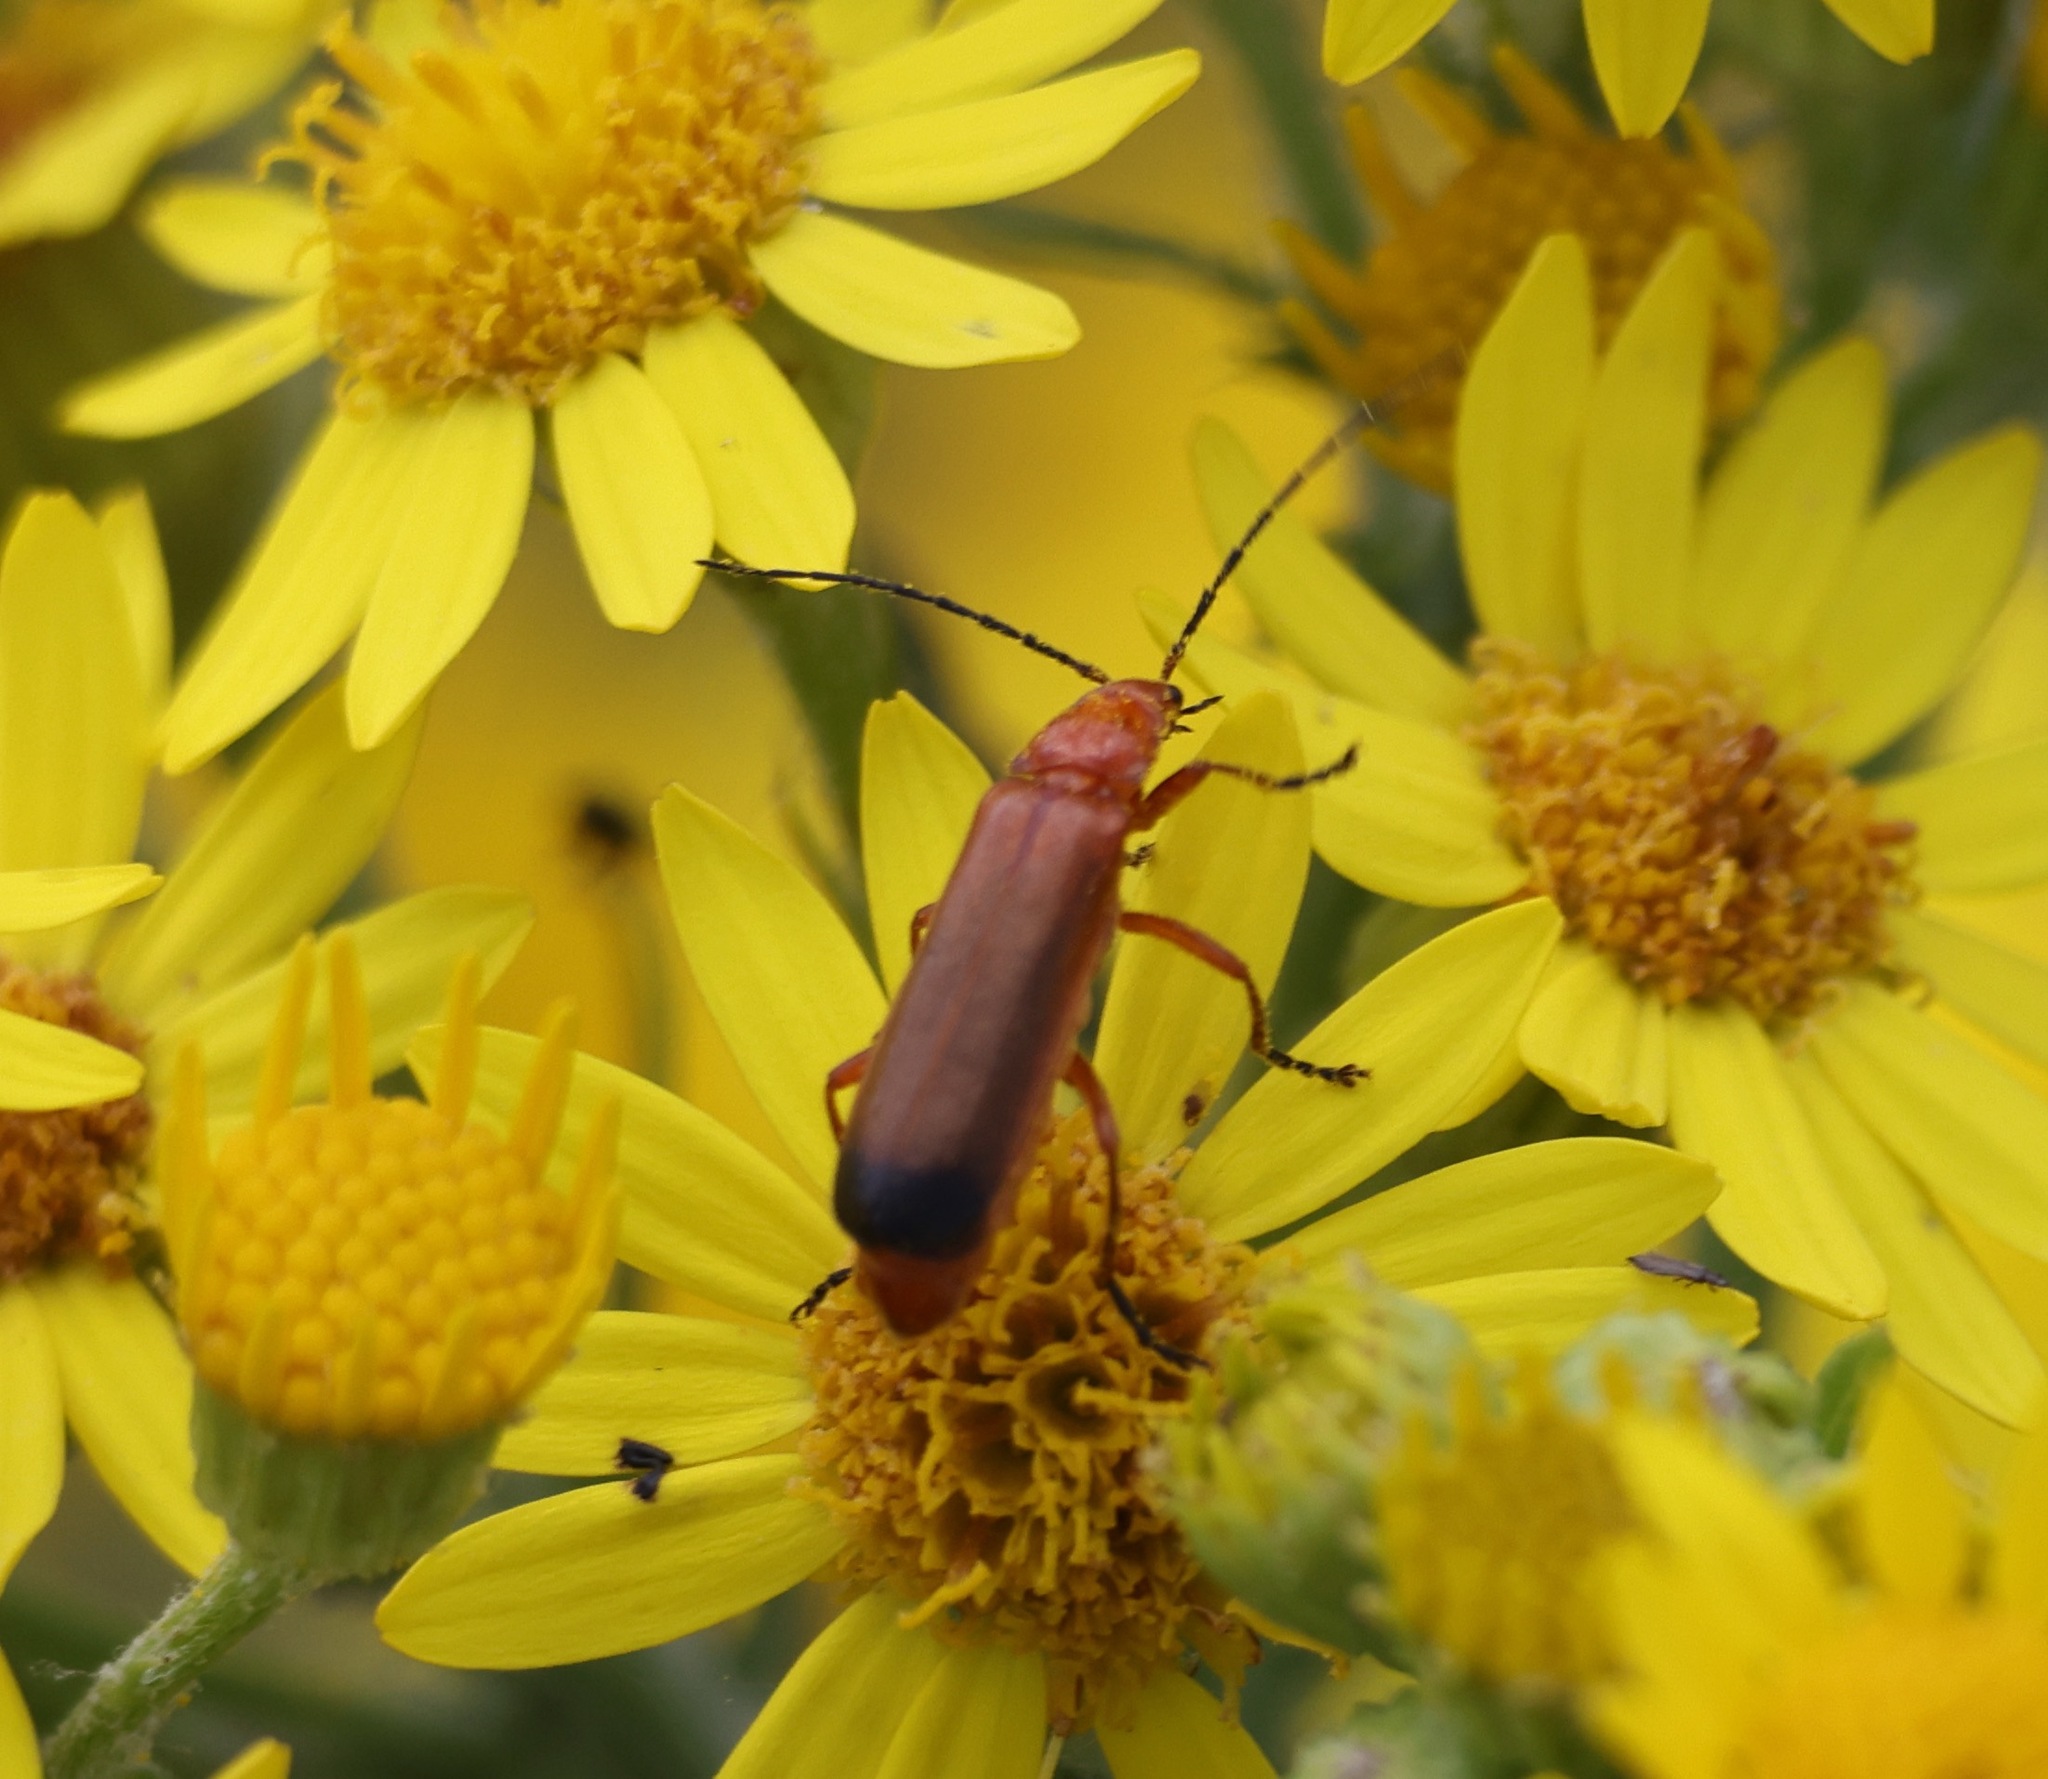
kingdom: Animalia
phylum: Arthropoda
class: Insecta
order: Coleoptera
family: Cantharidae
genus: Rhagonycha
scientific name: Rhagonycha fulva
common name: Common red soldier beetle
